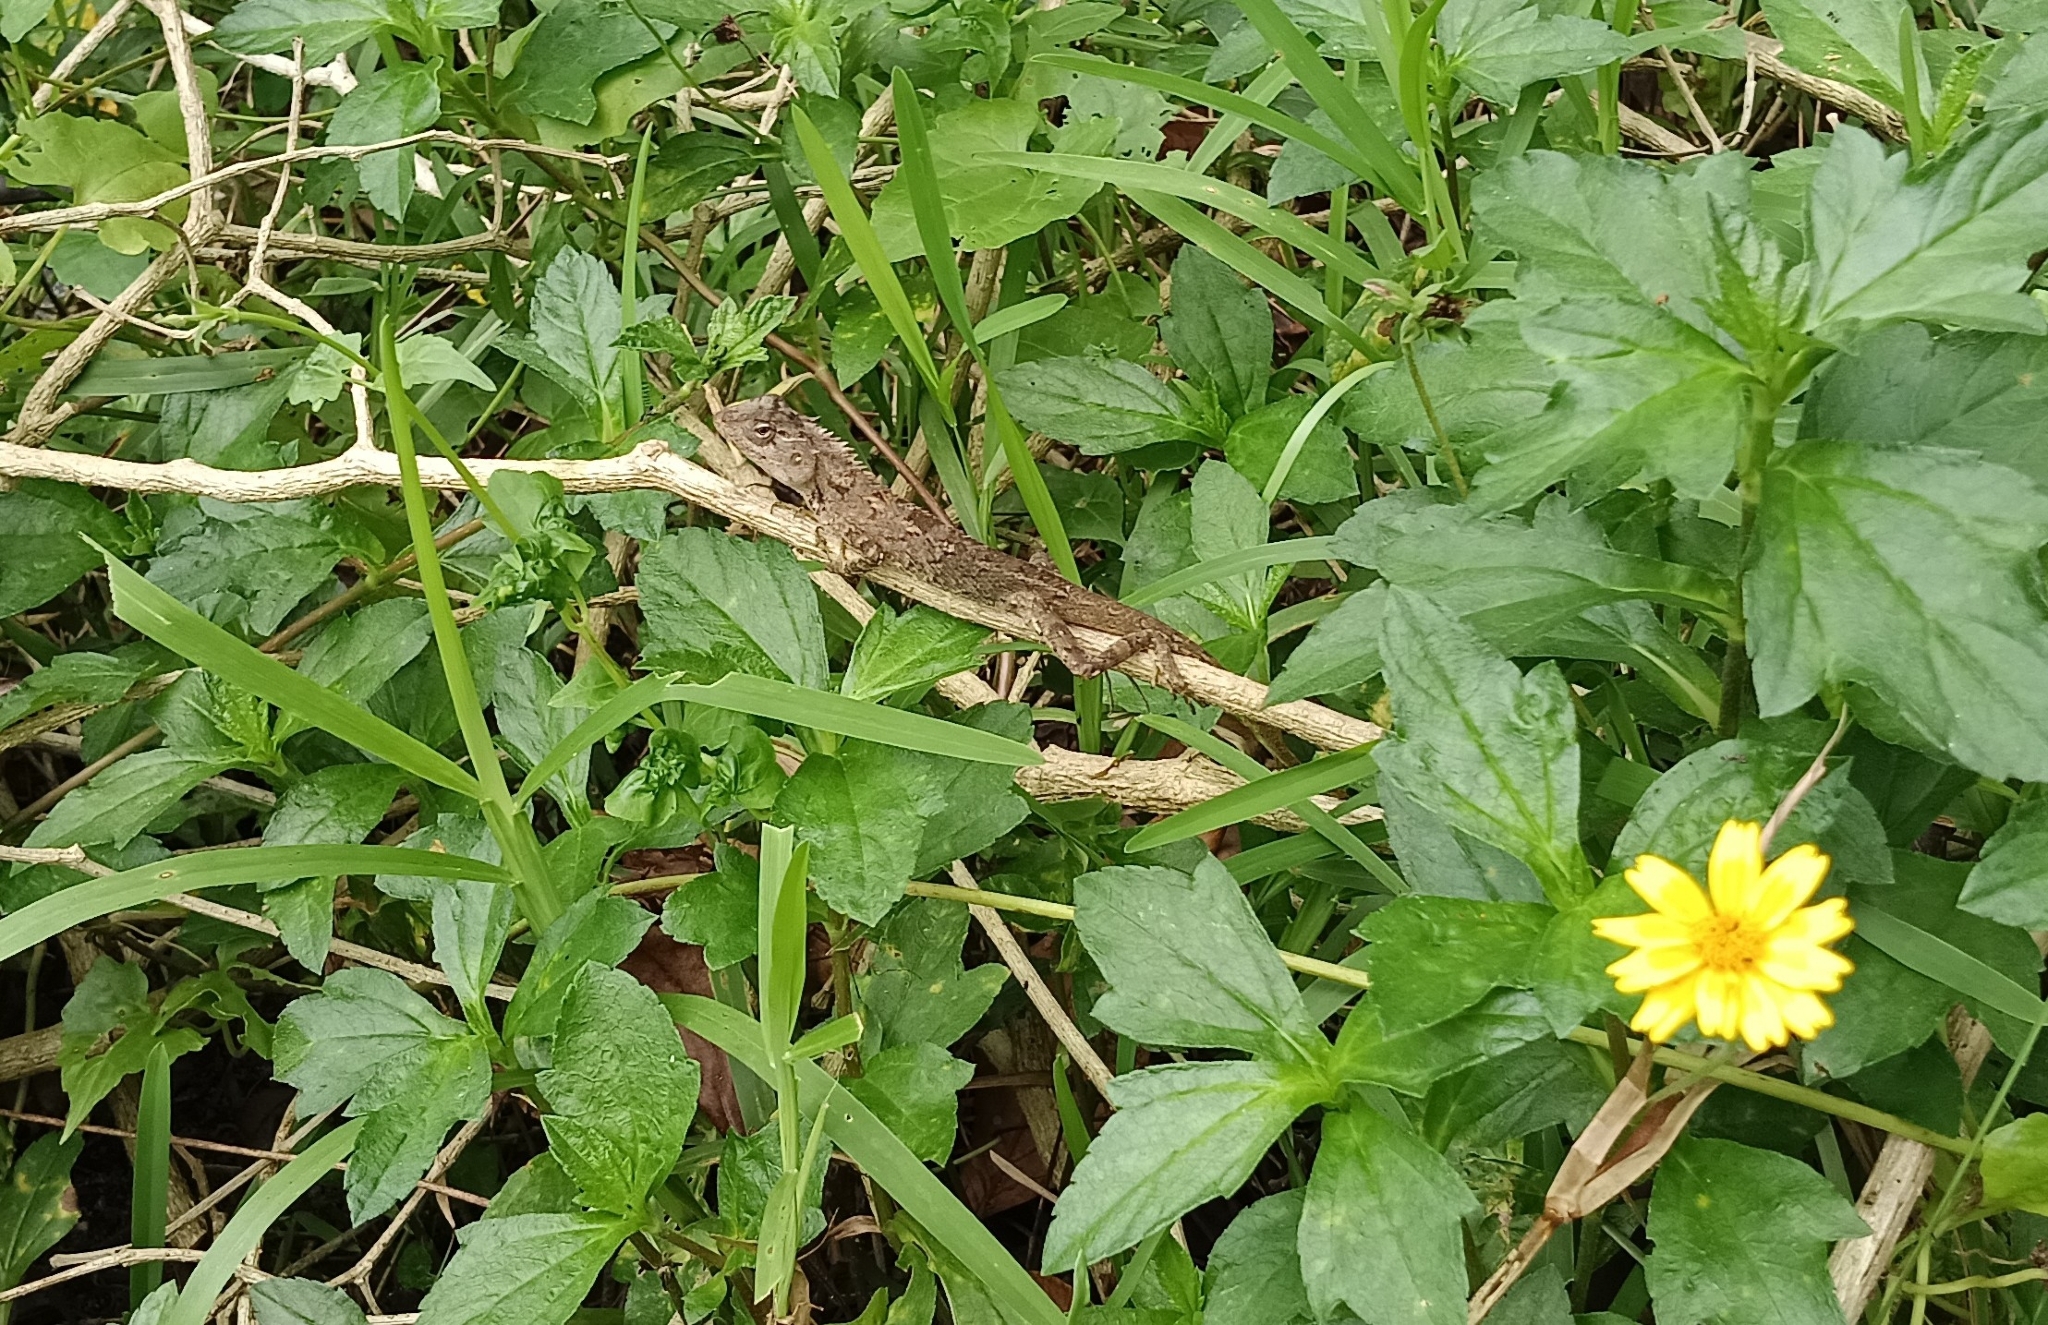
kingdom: Animalia
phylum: Chordata
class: Squamata
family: Agamidae
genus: Calotes
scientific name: Calotes versicolor
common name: Oriental garden lizard
